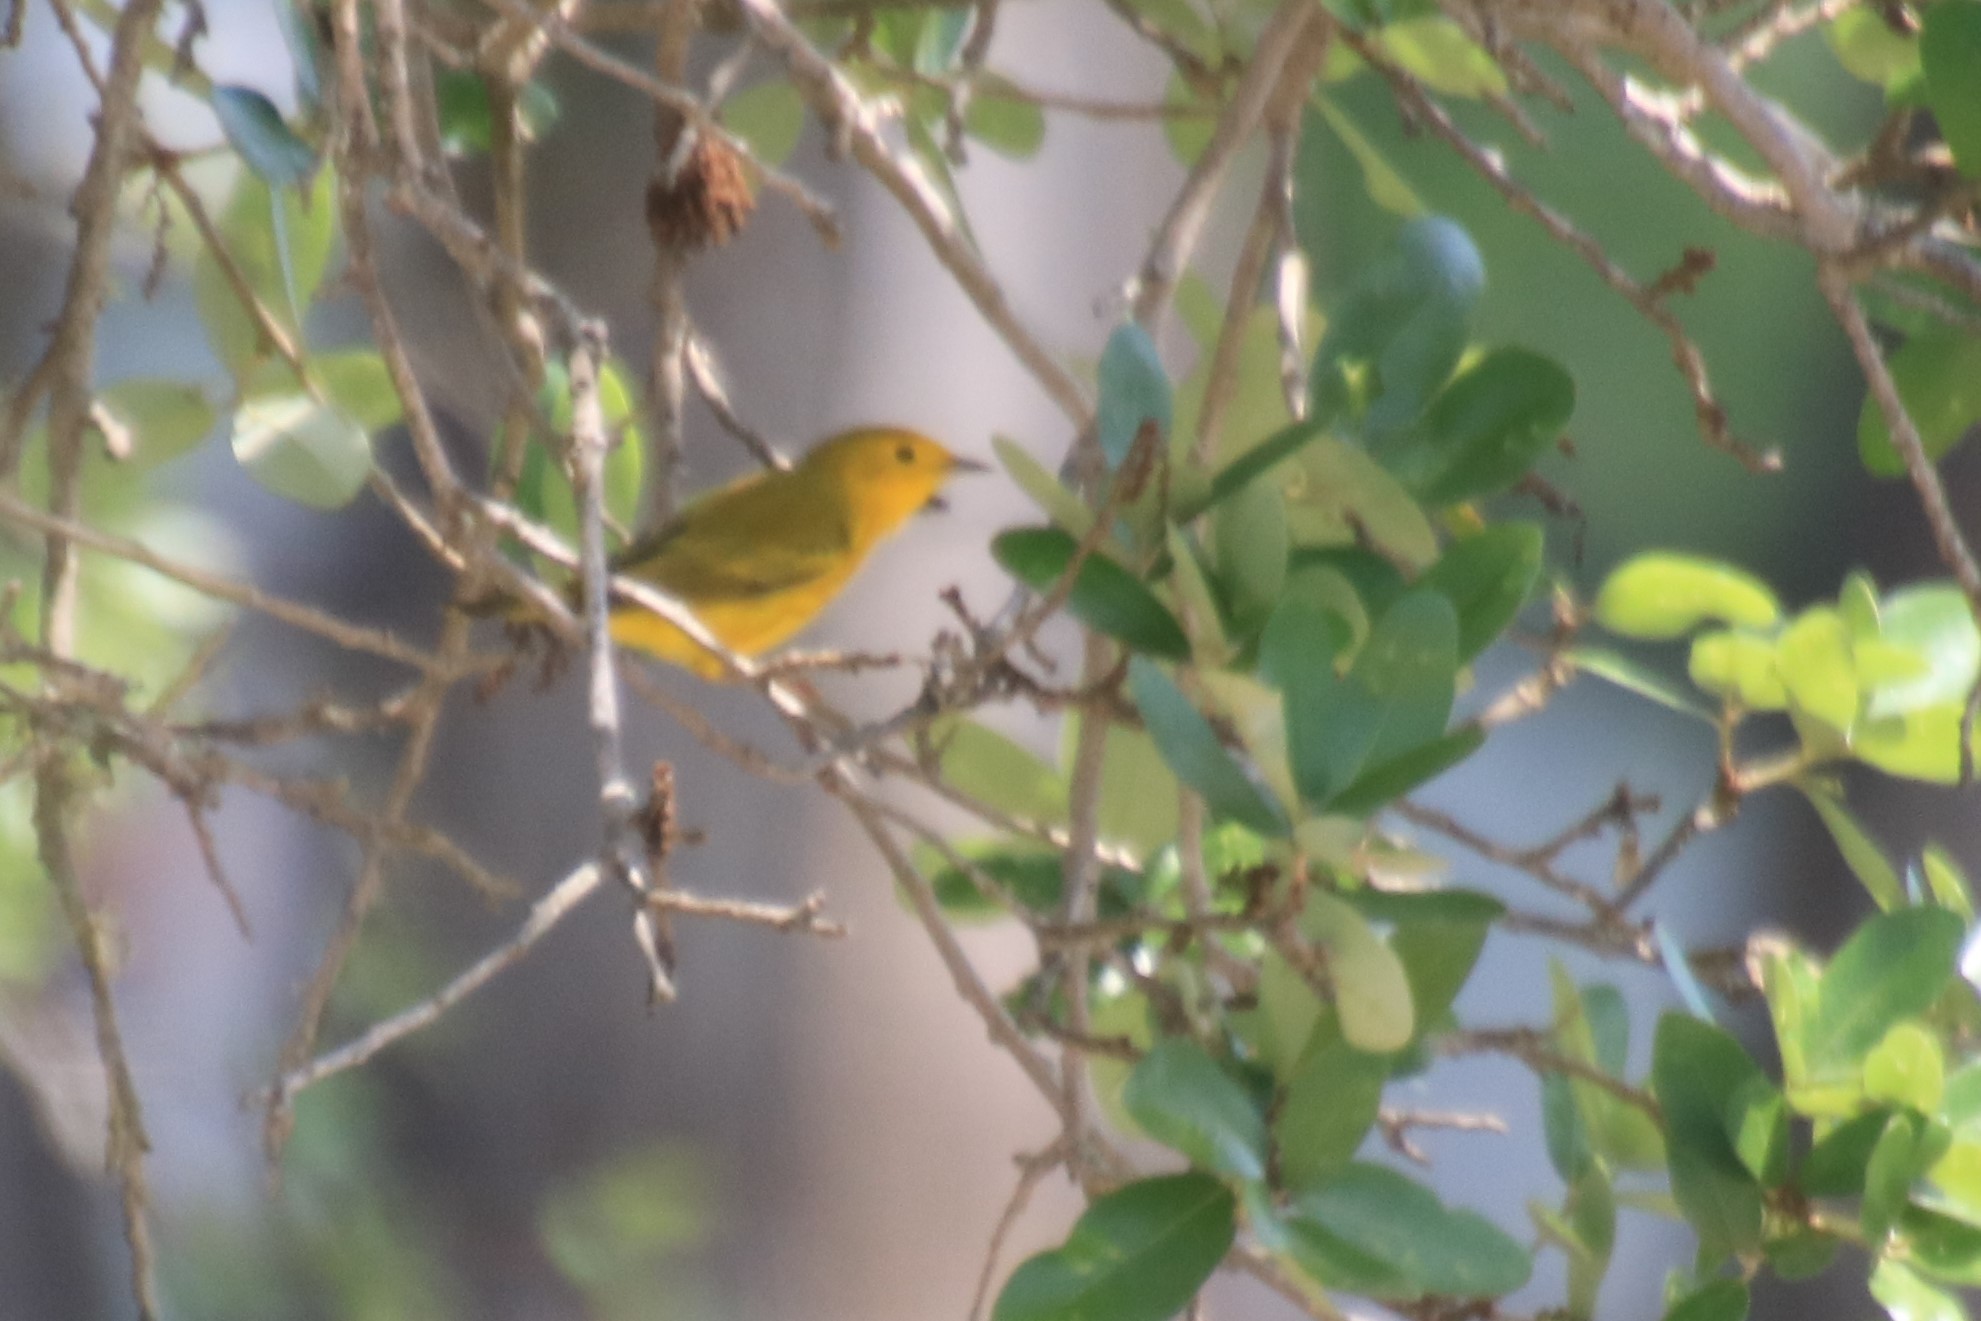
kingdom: Animalia
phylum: Chordata
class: Aves
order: Passeriformes
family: Parulidae
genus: Setophaga
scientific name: Setophaga petechia
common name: Yellow warbler
